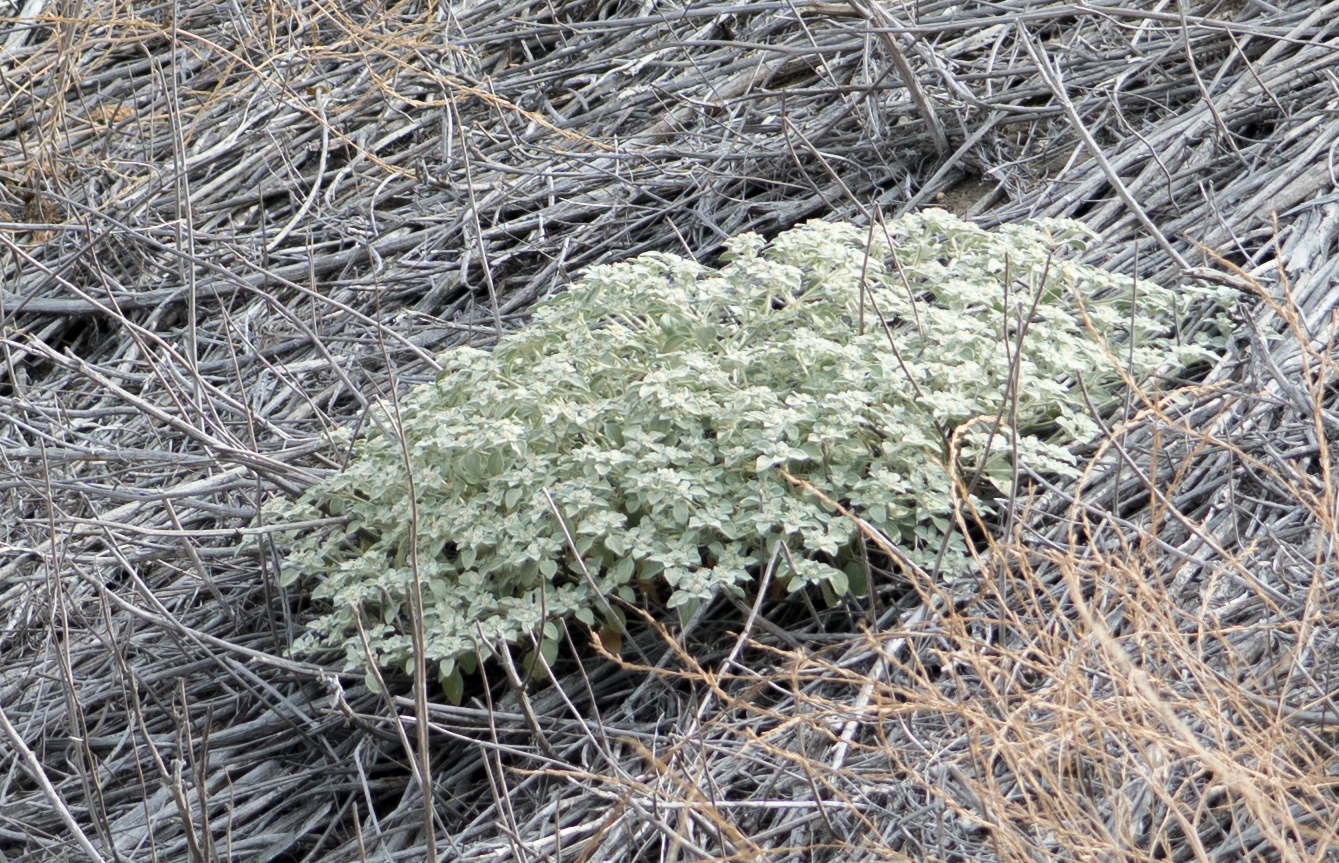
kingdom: Plantae
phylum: Tracheophyta
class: Magnoliopsida
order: Malpighiales
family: Euphorbiaceae
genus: Croton
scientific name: Croton setiger
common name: Dove weed
